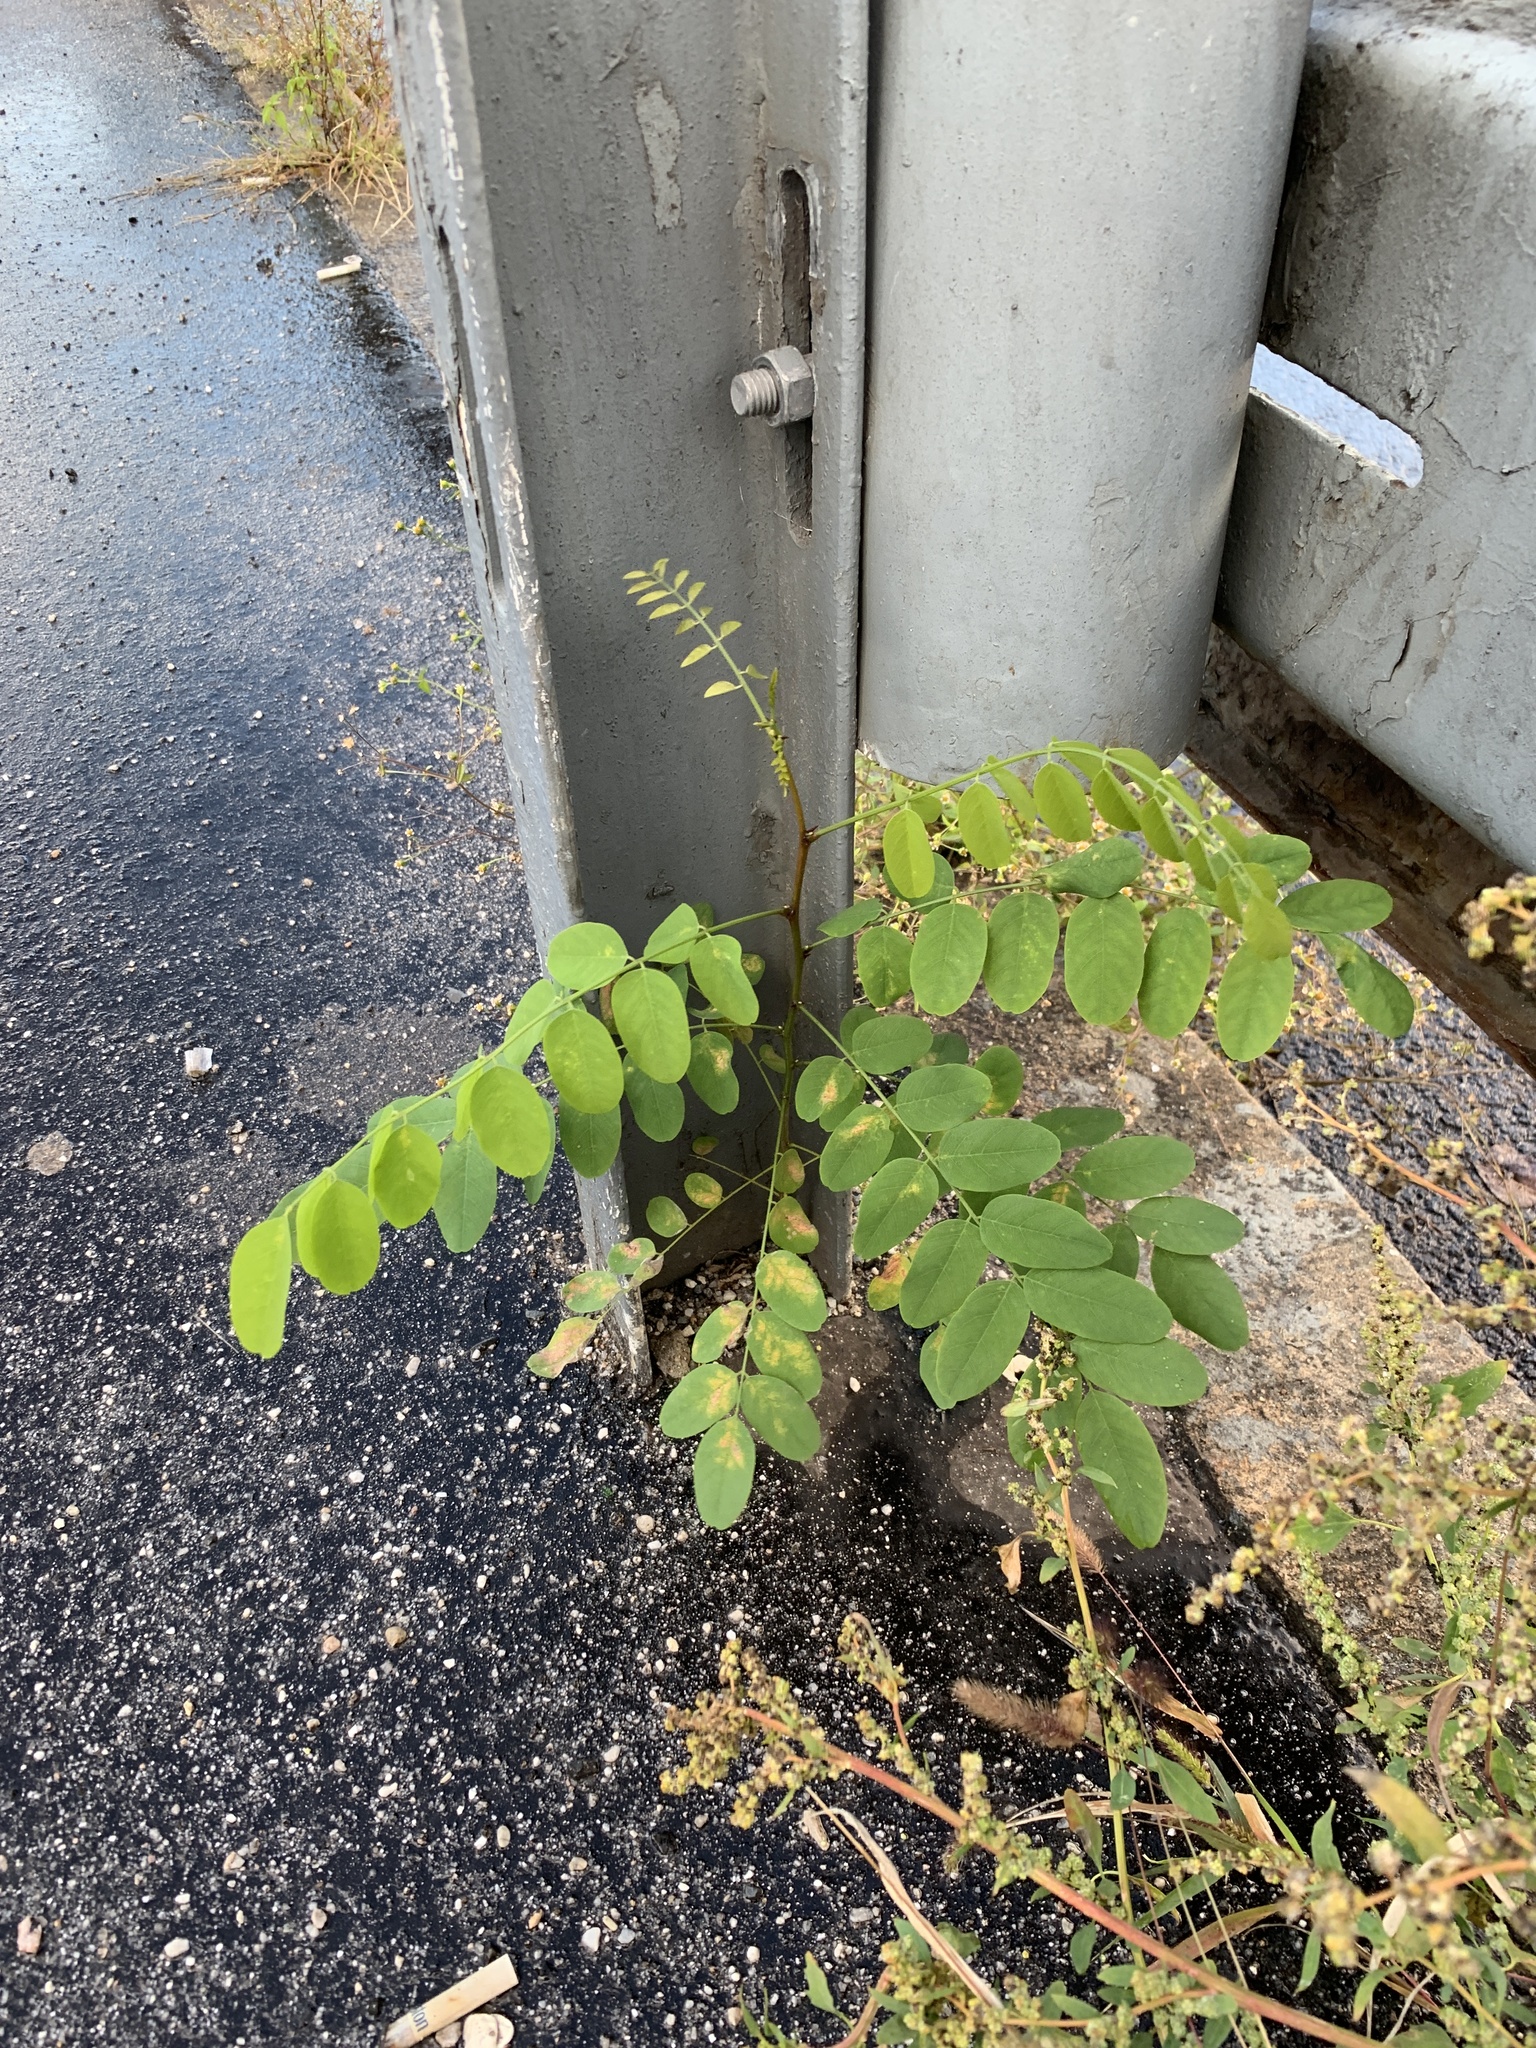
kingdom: Plantae
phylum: Tracheophyta
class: Magnoliopsida
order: Fabales
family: Fabaceae
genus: Robinia
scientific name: Robinia pseudoacacia
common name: Black locust
